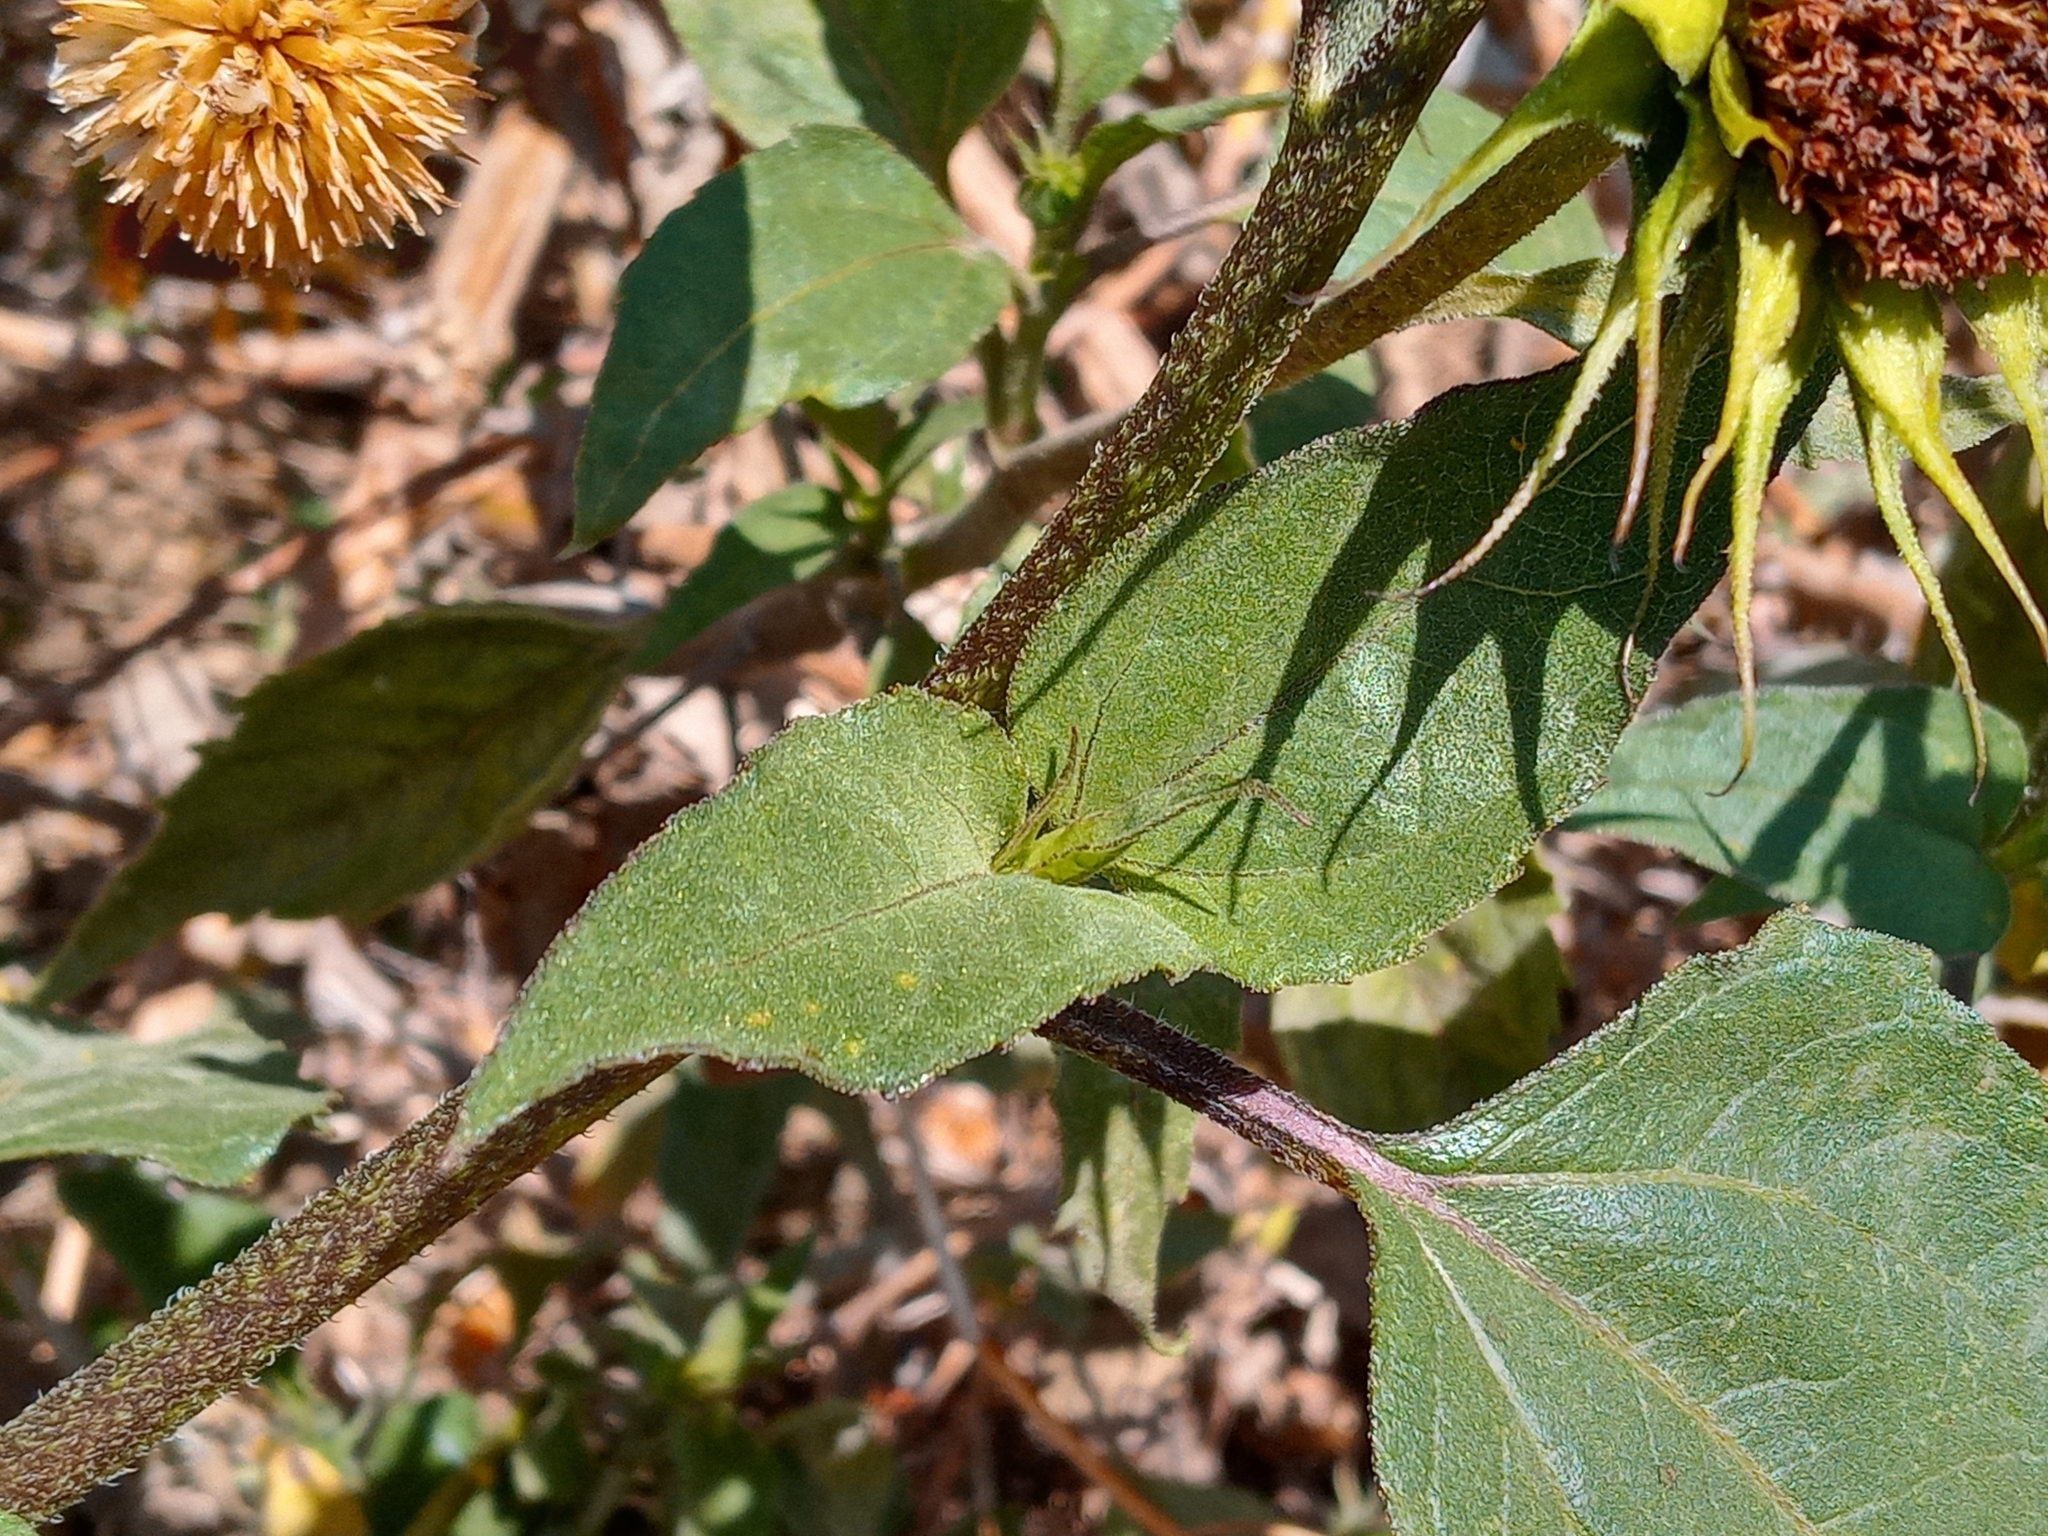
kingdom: Plantae
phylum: Tracheophyta
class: Magnoliopsida
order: Asterales
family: Asteraceae
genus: Helianthus
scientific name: Helianthus annuus
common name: Sunflower
